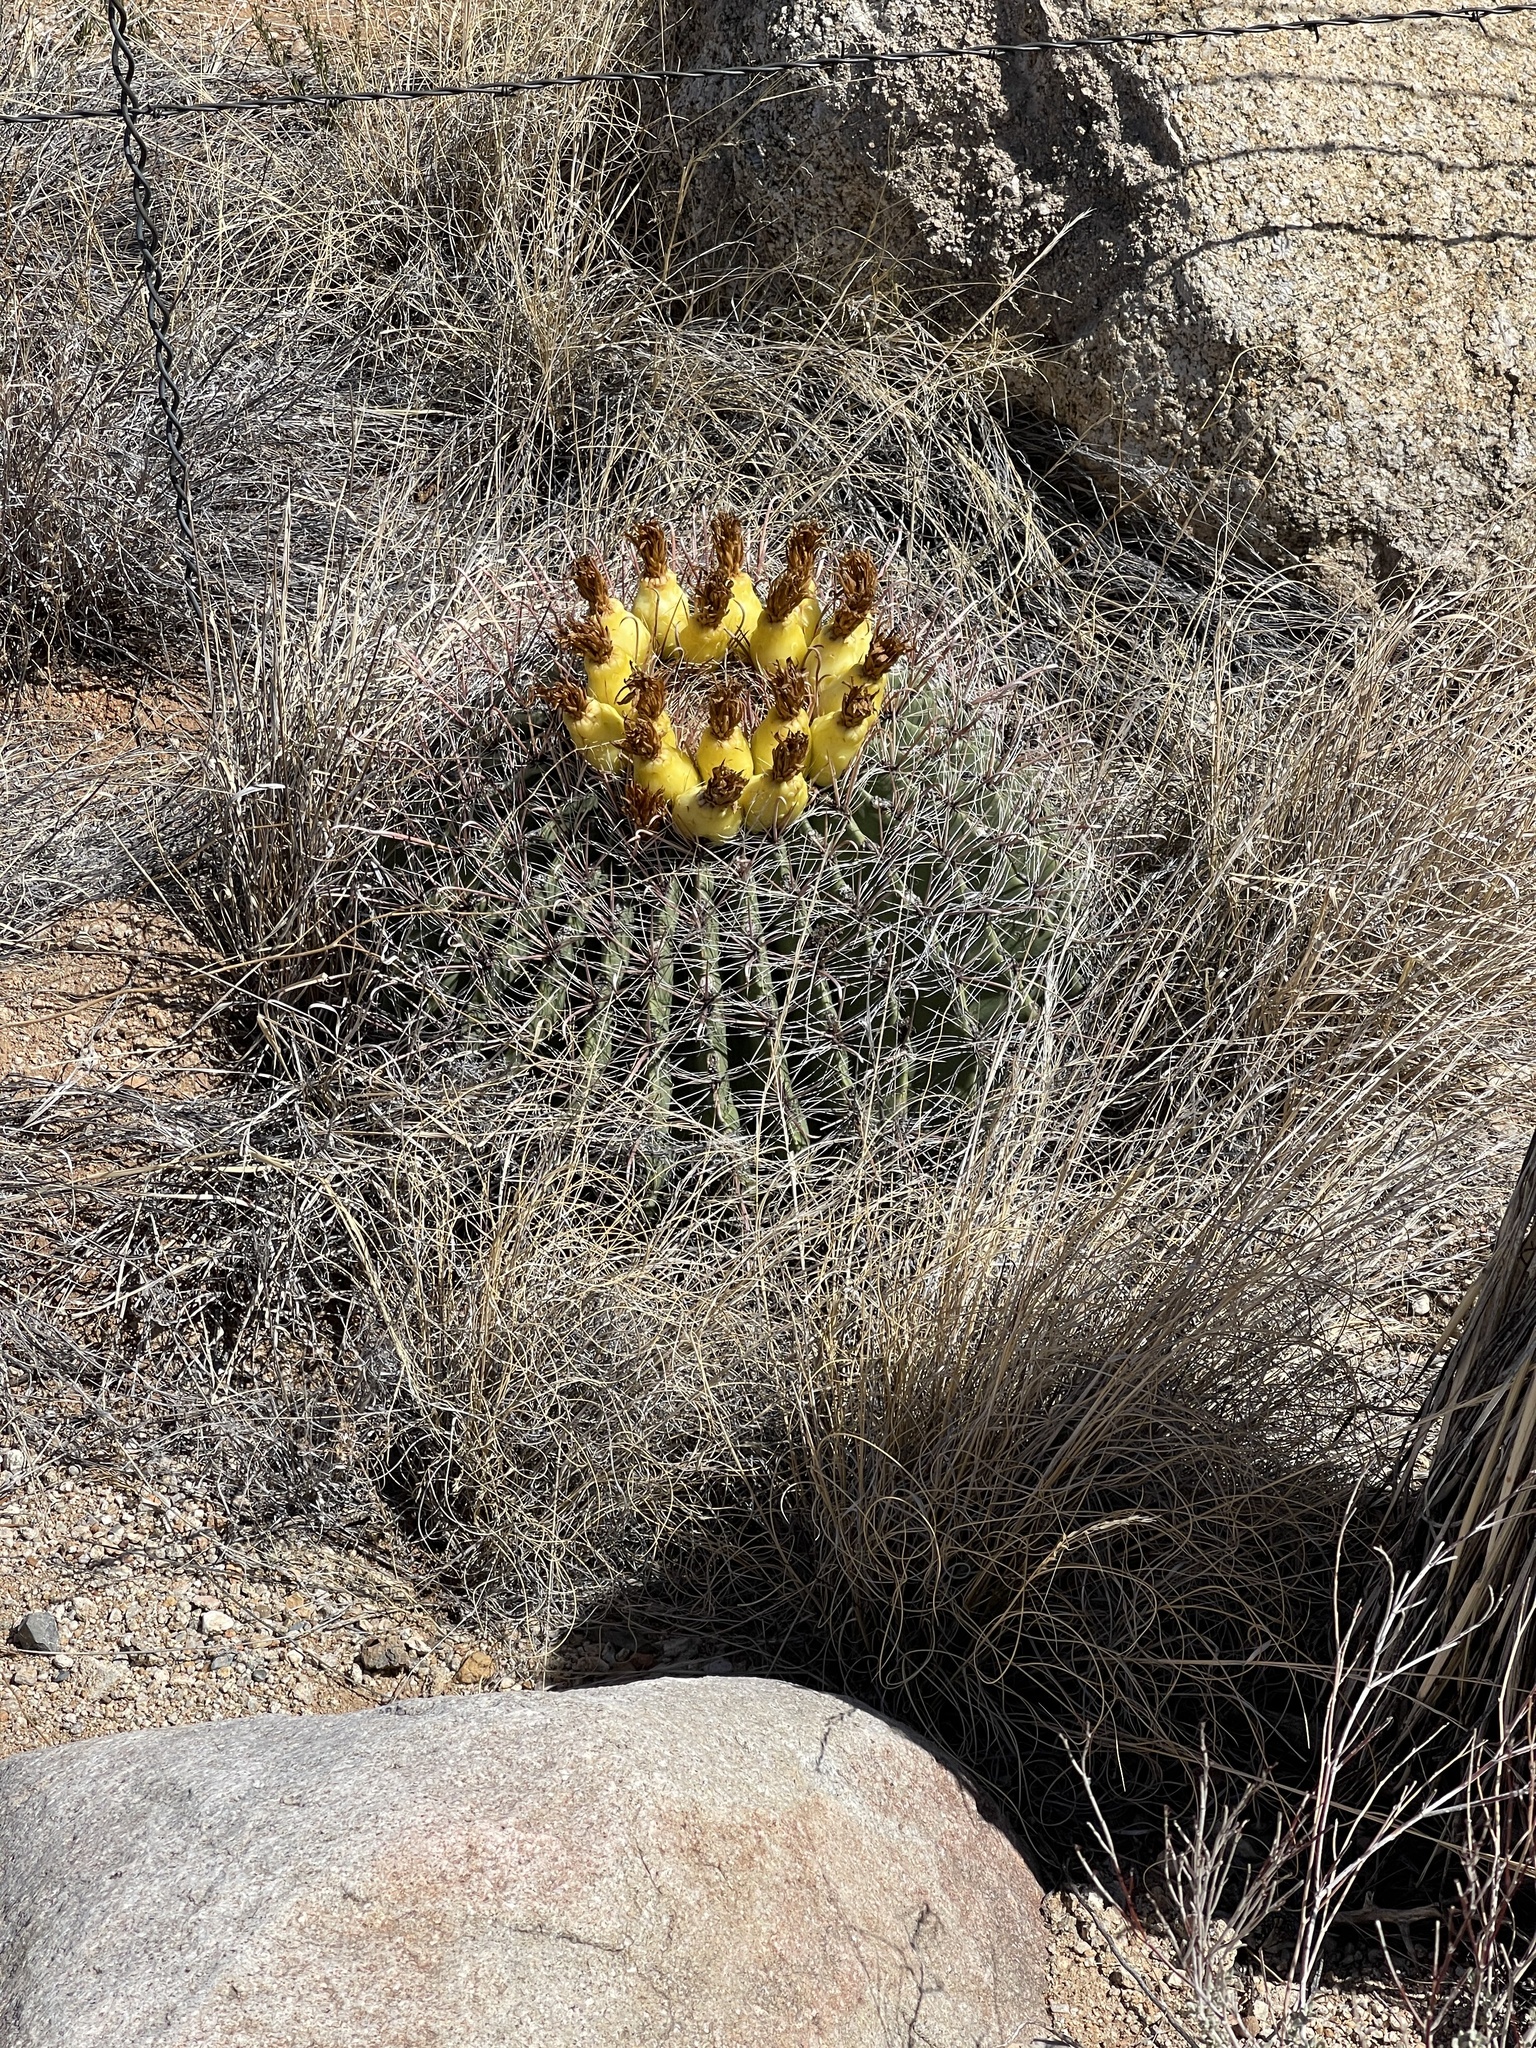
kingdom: Plantae
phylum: Tracheophyta
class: Magnoliopsida
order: Caryophyllales
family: Cactaceae
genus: Ferocactus
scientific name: Ferocactus wislizeni
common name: Candy barrel cactus
